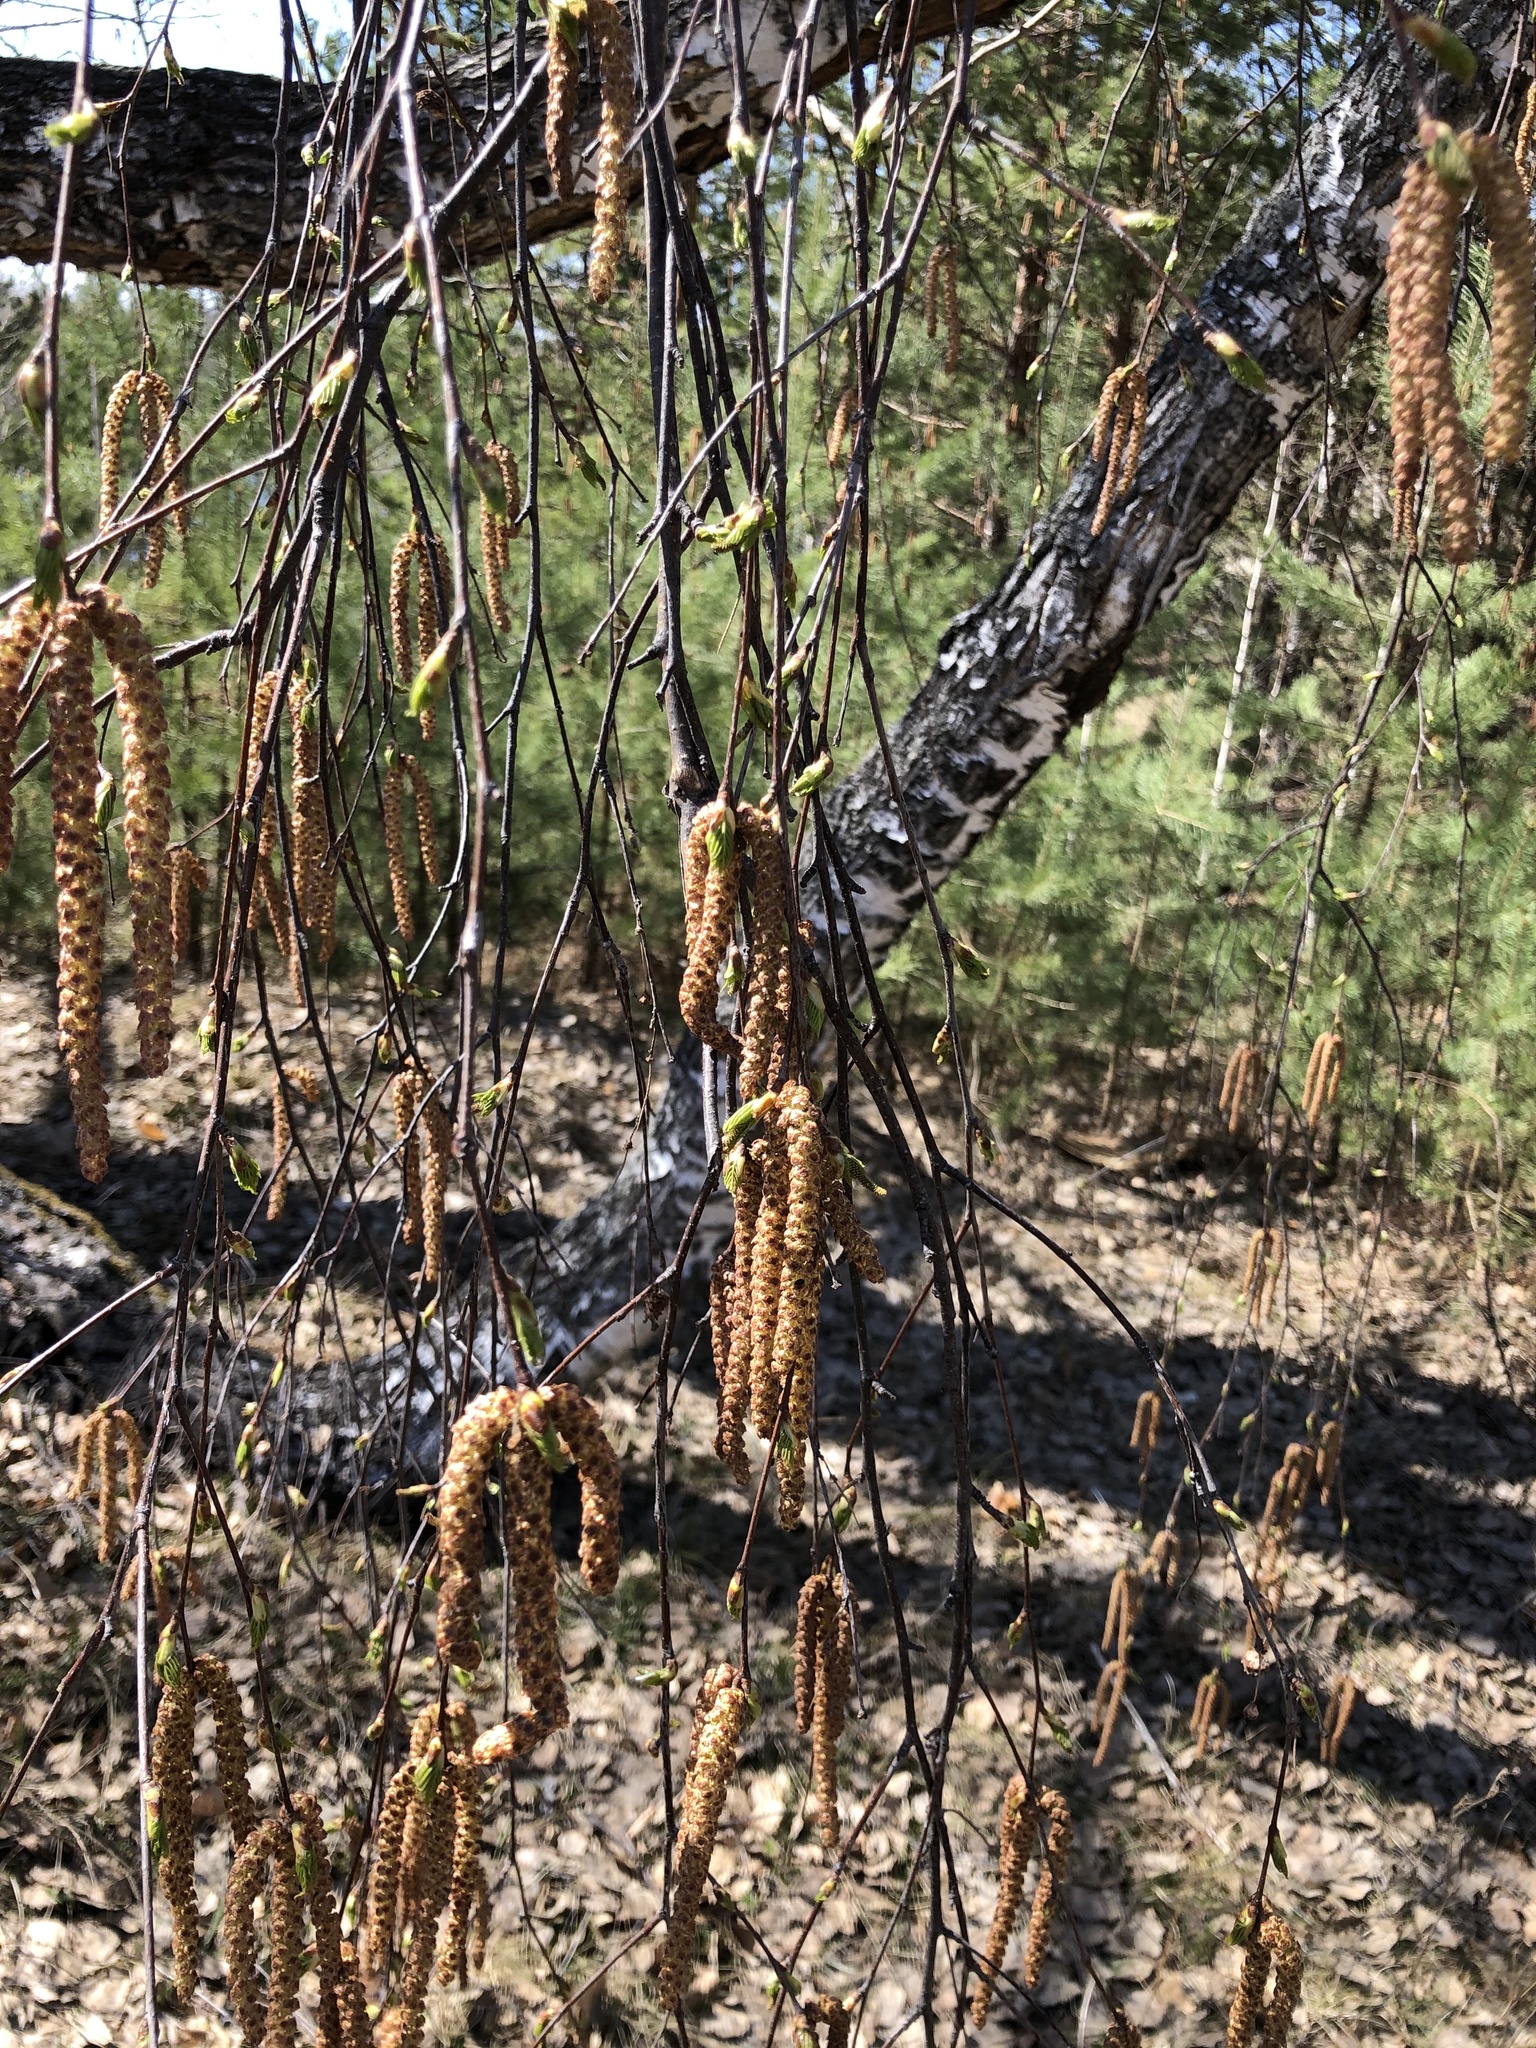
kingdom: Plantae
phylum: Tracheophyta
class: Magnoliopsida
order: Fagales
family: Betulaceae
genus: Betula
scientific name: Betula pendula
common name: Silver birch
